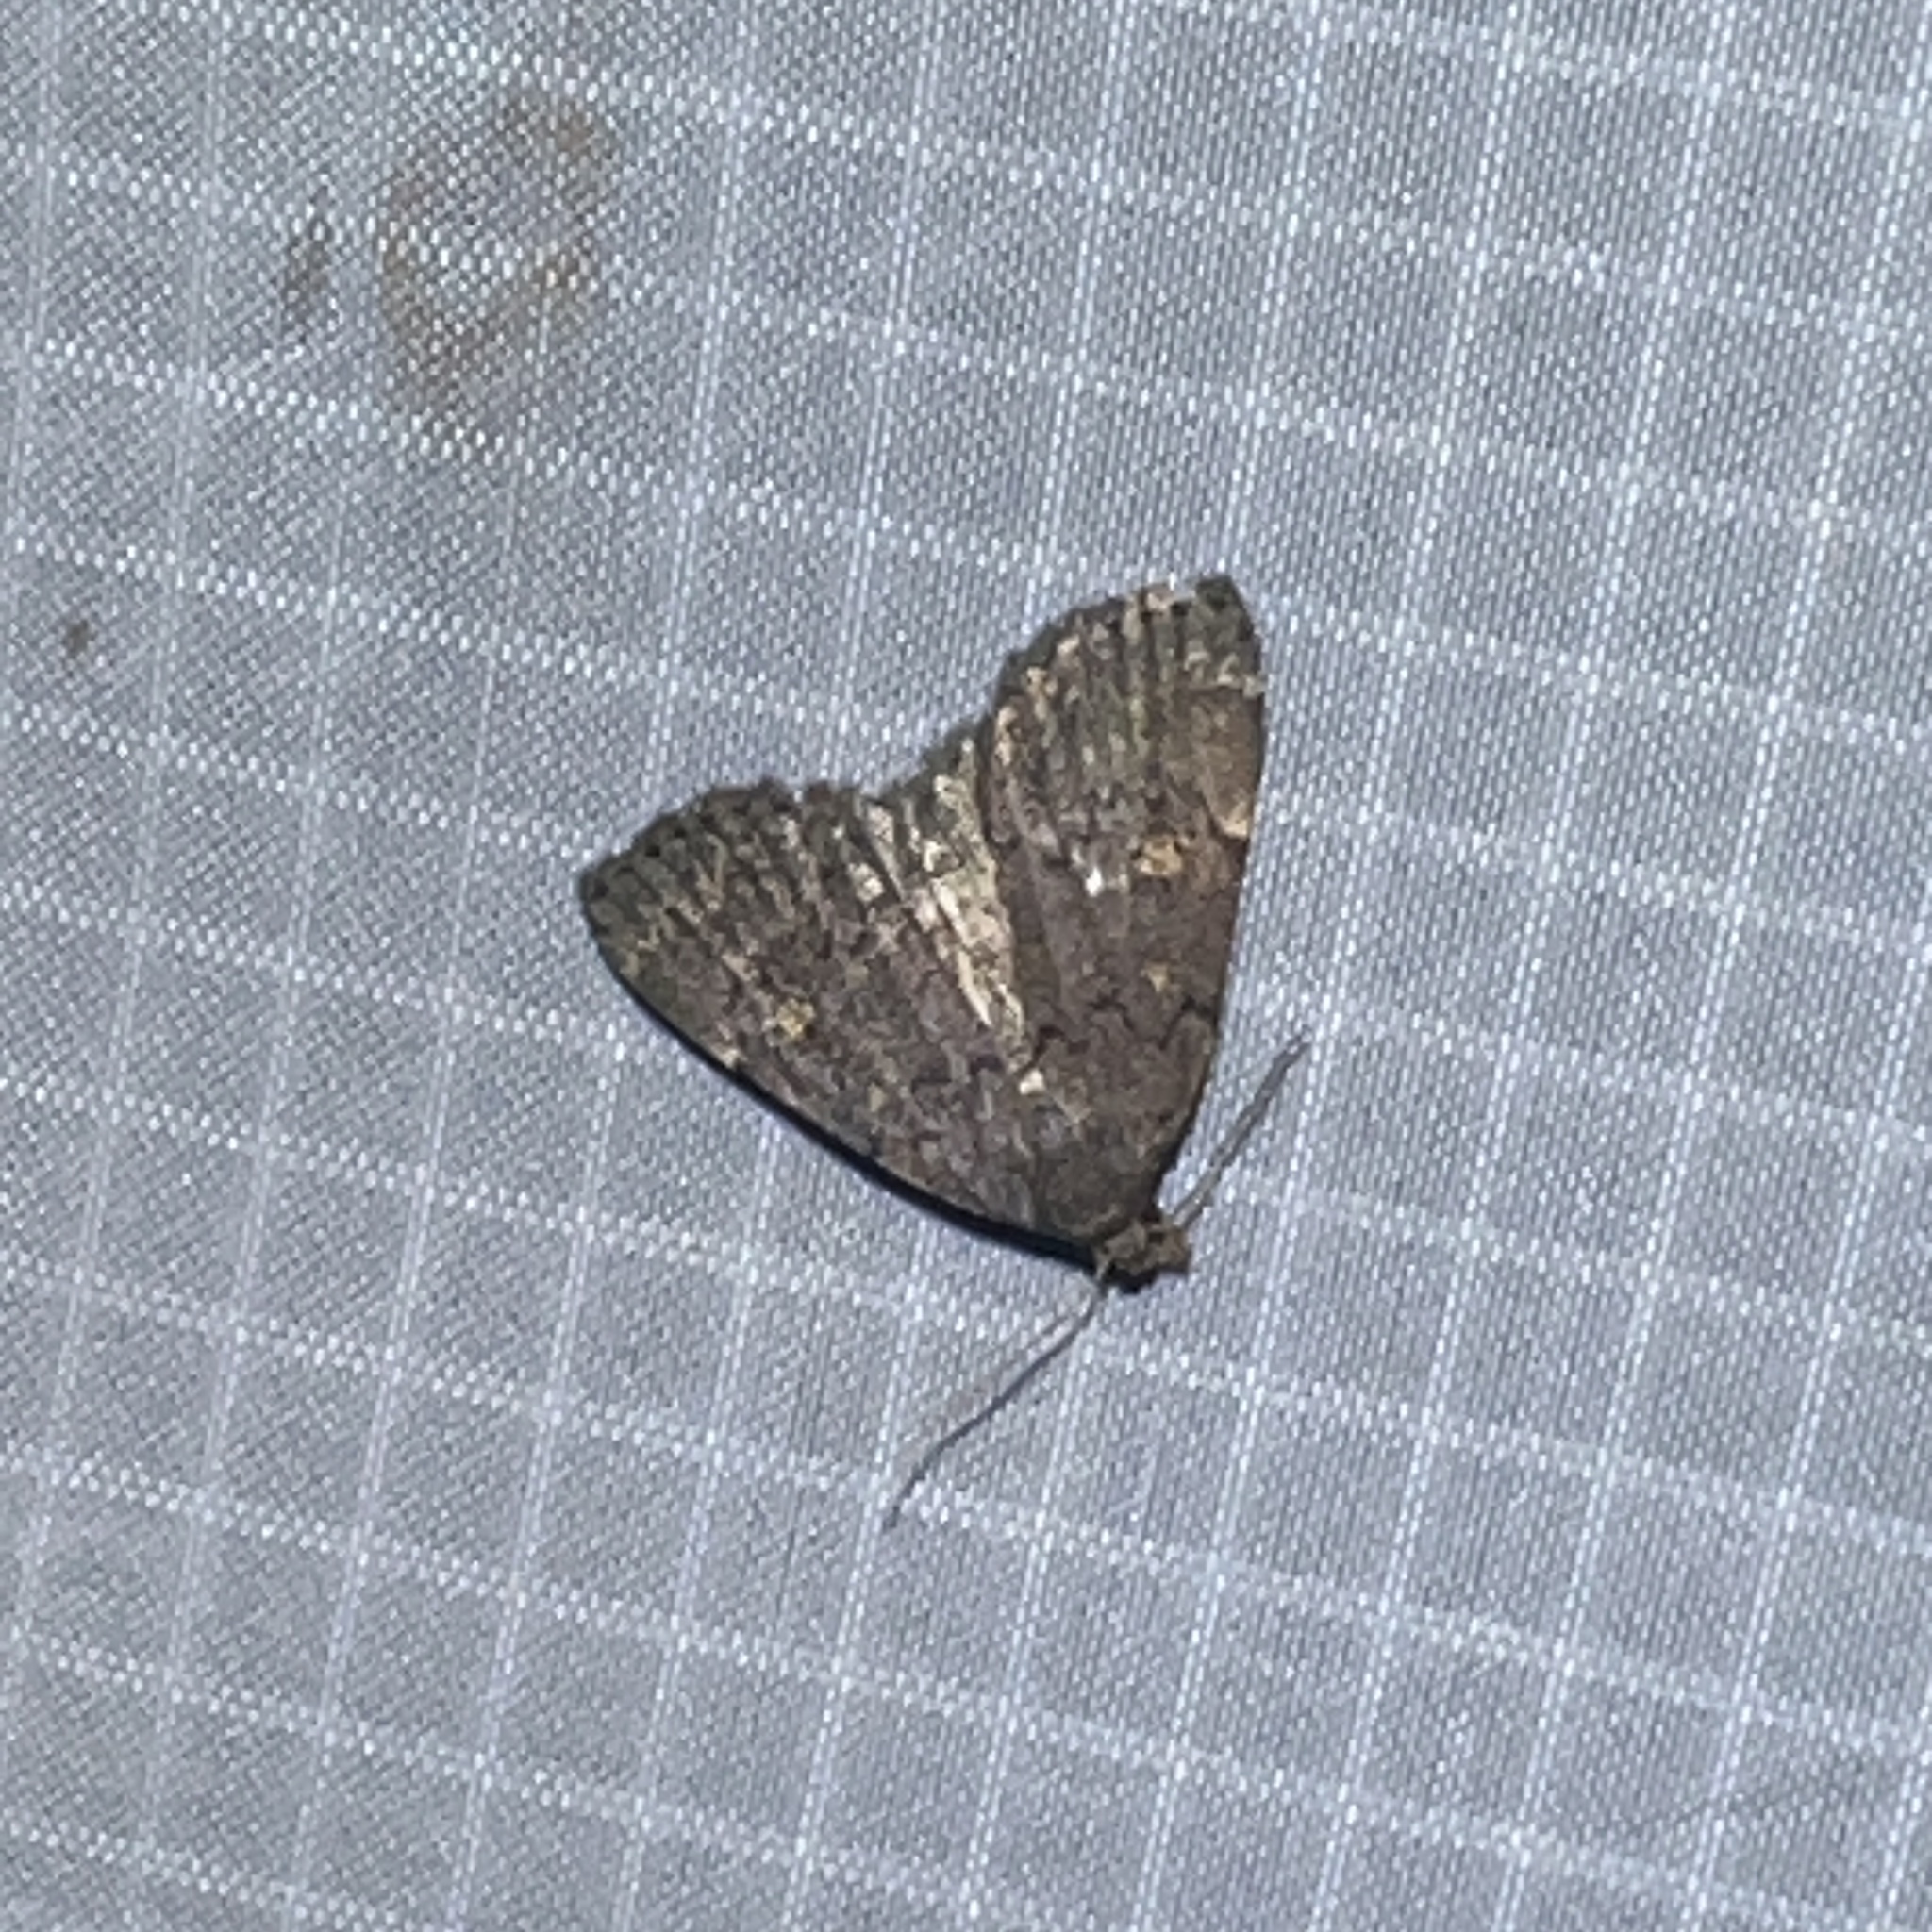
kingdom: Animalia
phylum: Arthropoda
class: Insecta
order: Lepidoptera
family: Erebidae
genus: Idia
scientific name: Idia aemula
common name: Common idia moth
